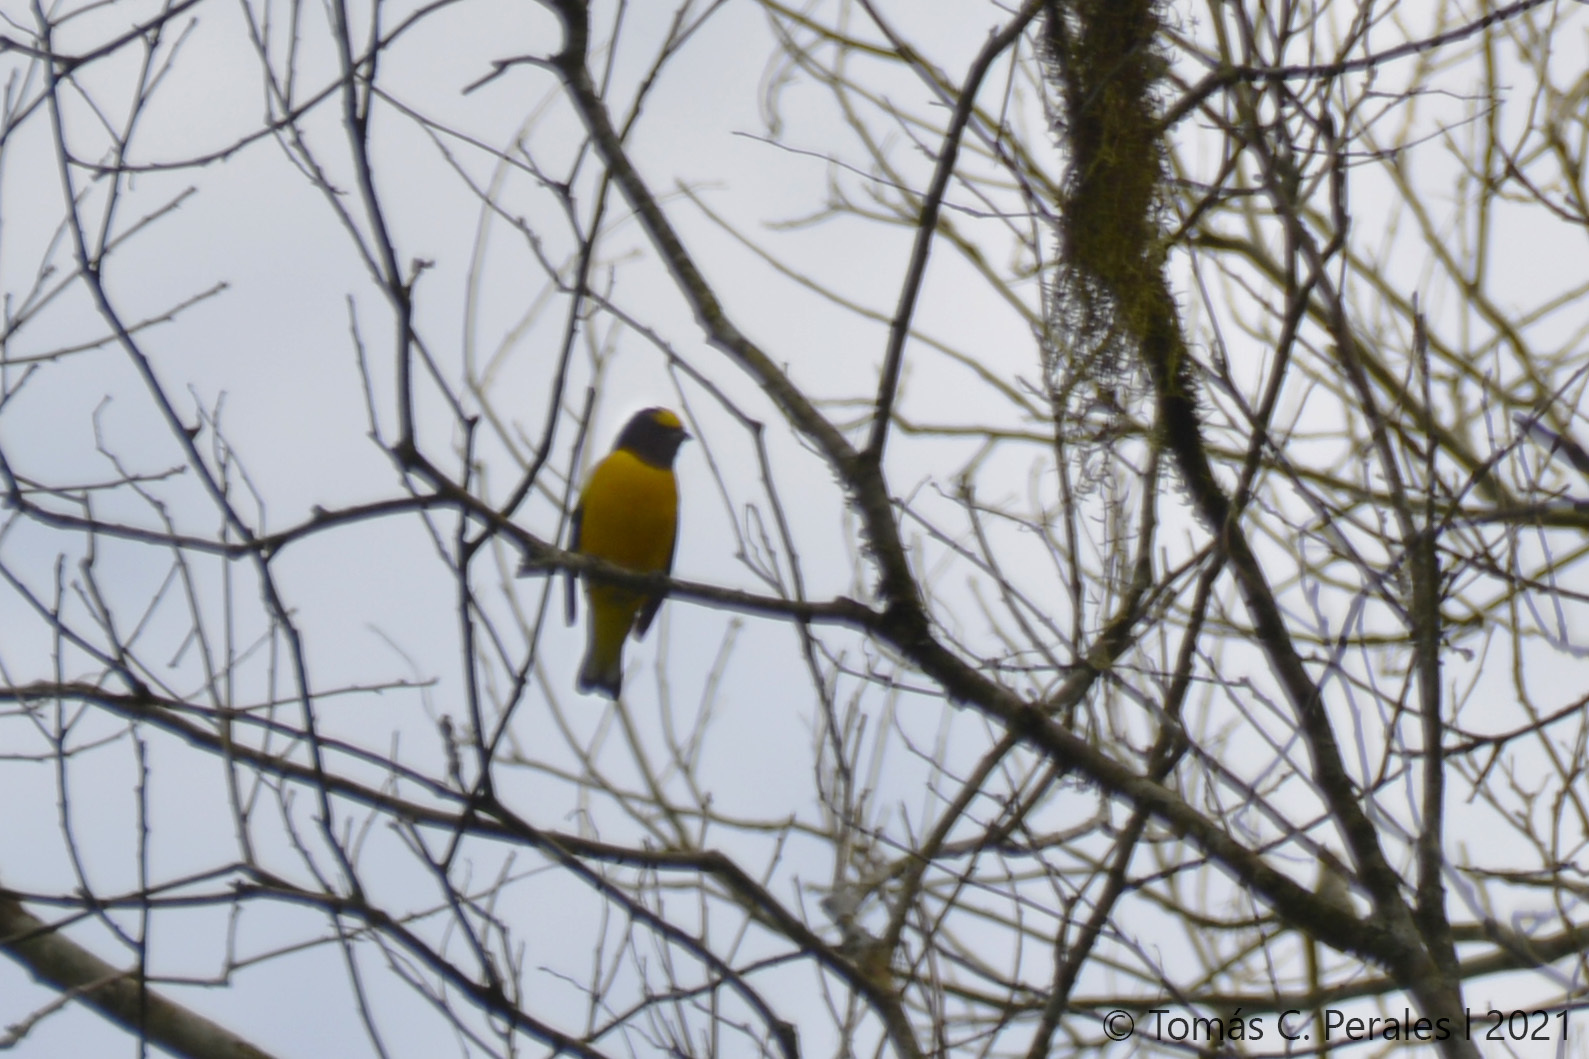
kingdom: Animalia
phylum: Chordata
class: Aves
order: Passeriformes
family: Fringillidae
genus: Euphonia
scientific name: Euphonia chlorotica
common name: Purple-throated euphonia
